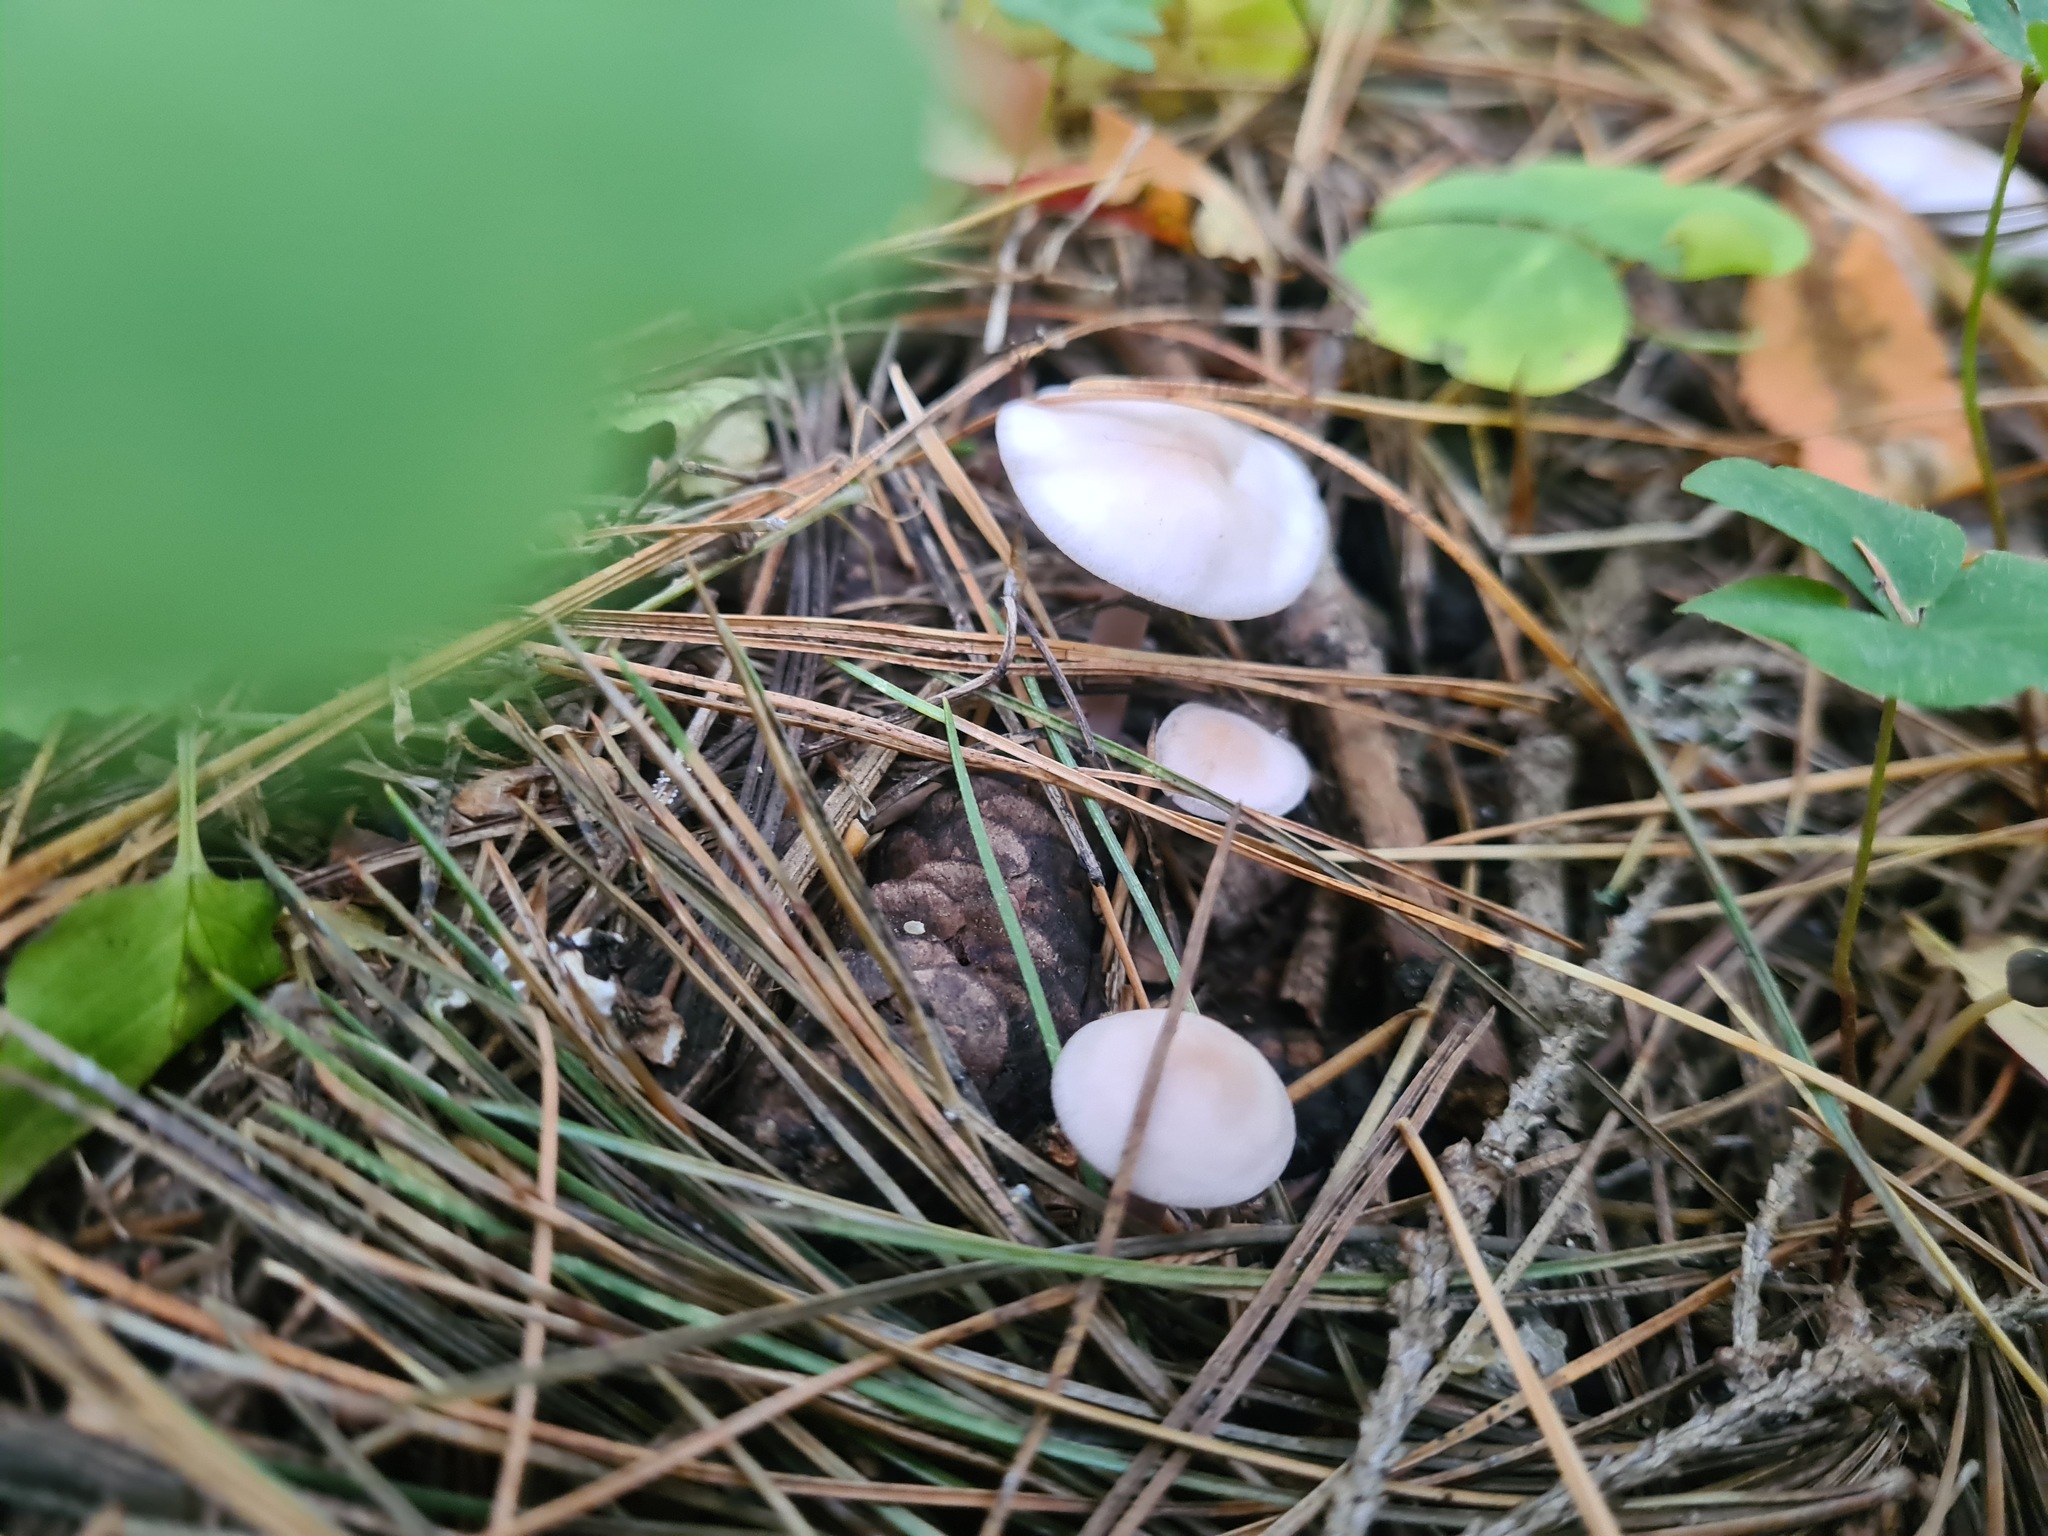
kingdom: Fungi
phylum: Basidiomycota
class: Agaricomycetes
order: Agaricales
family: Mycenaceae
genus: Mycena
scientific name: Mycena pura
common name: Lilac bonnet
